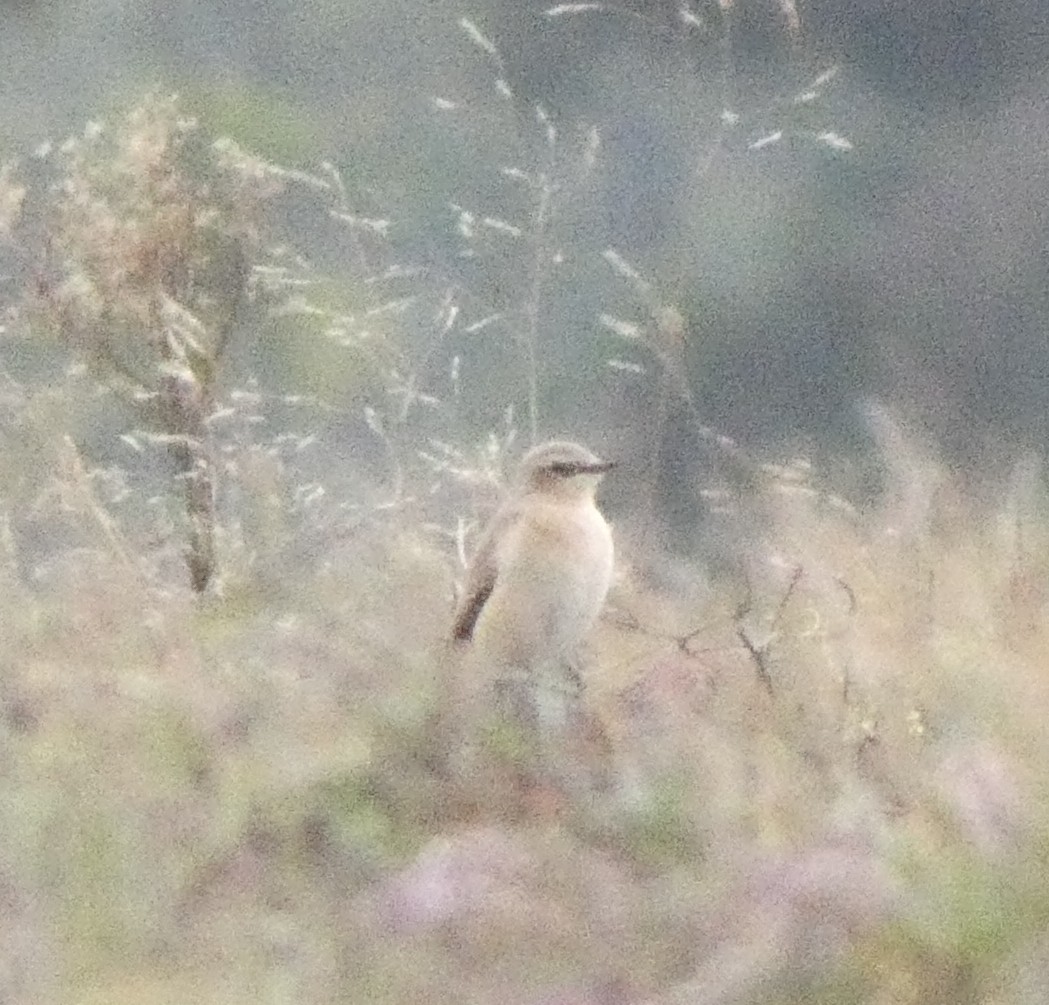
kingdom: Animalia
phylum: Chordata
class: Aves
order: Passeriformes
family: Muscicapidae
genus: Oenanthe
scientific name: Oenanthe oenanthe
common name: Northern wheatear
